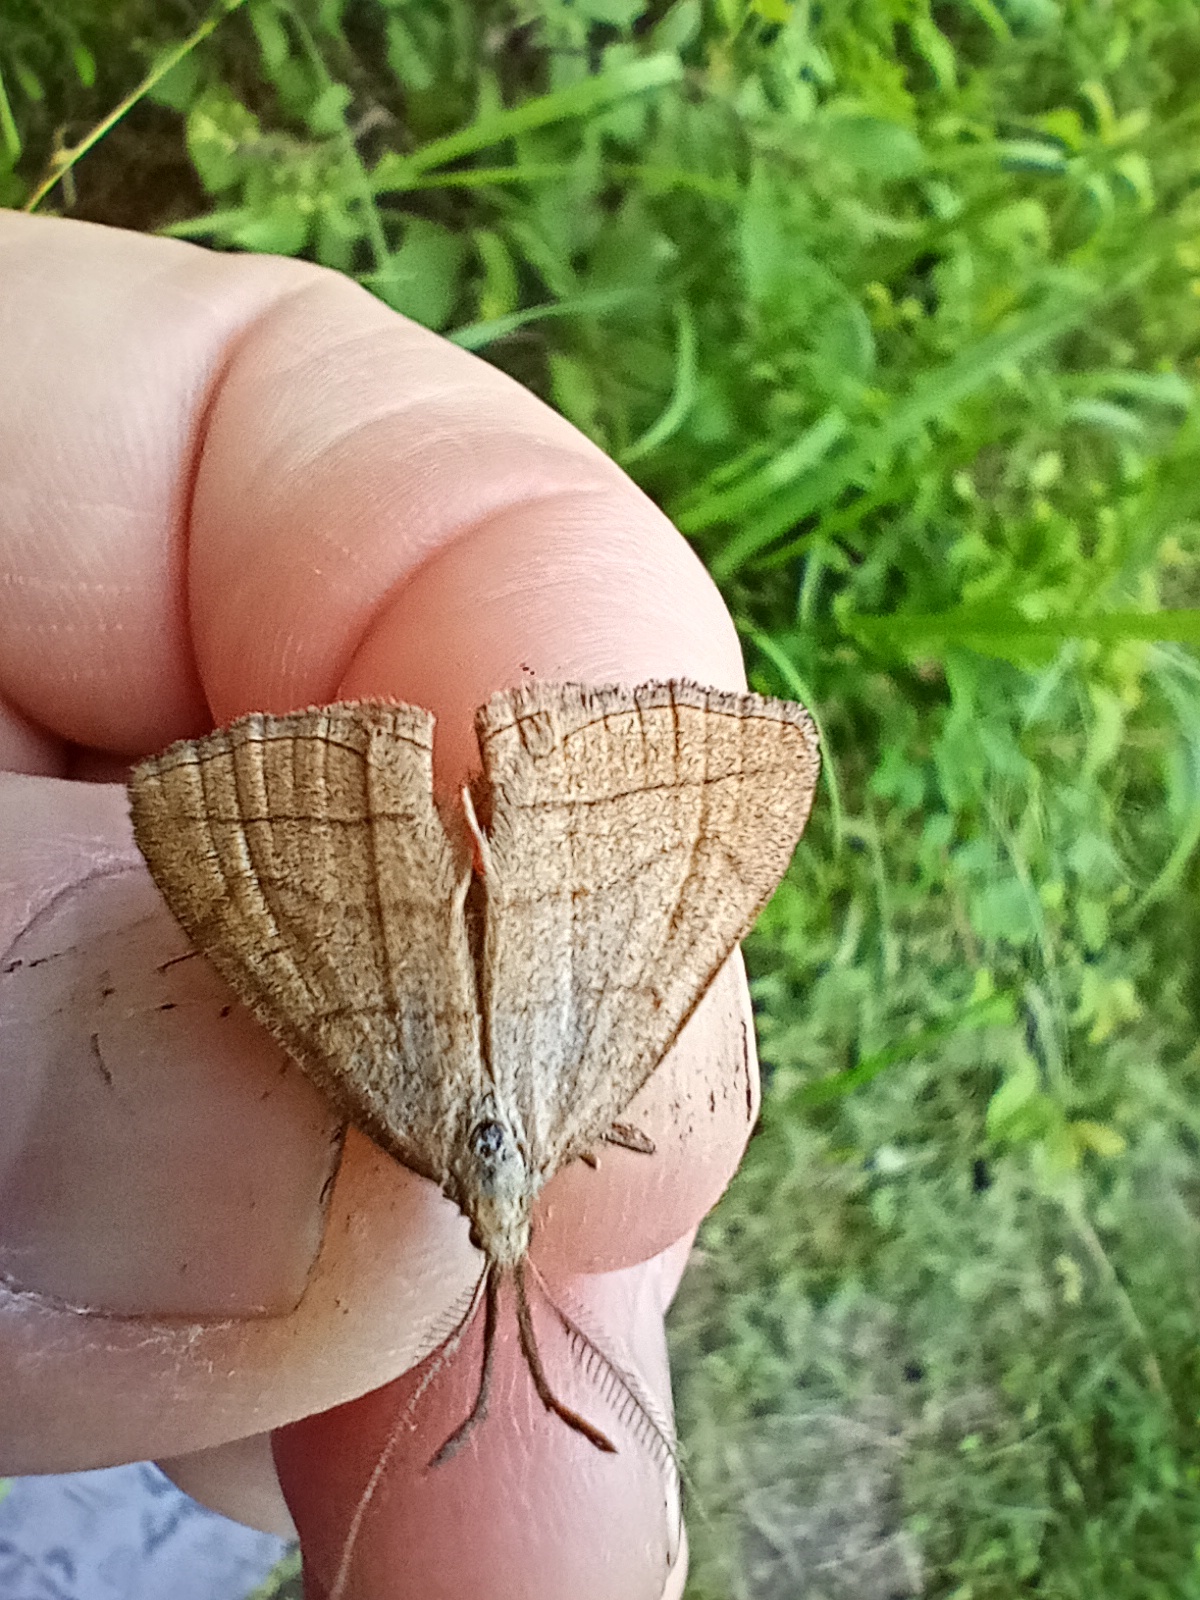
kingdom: Animalia
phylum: Arthropoda
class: Insecta
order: Lepidoptera
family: Erebidae
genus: Polypogon
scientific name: Polypogon tentacularia
